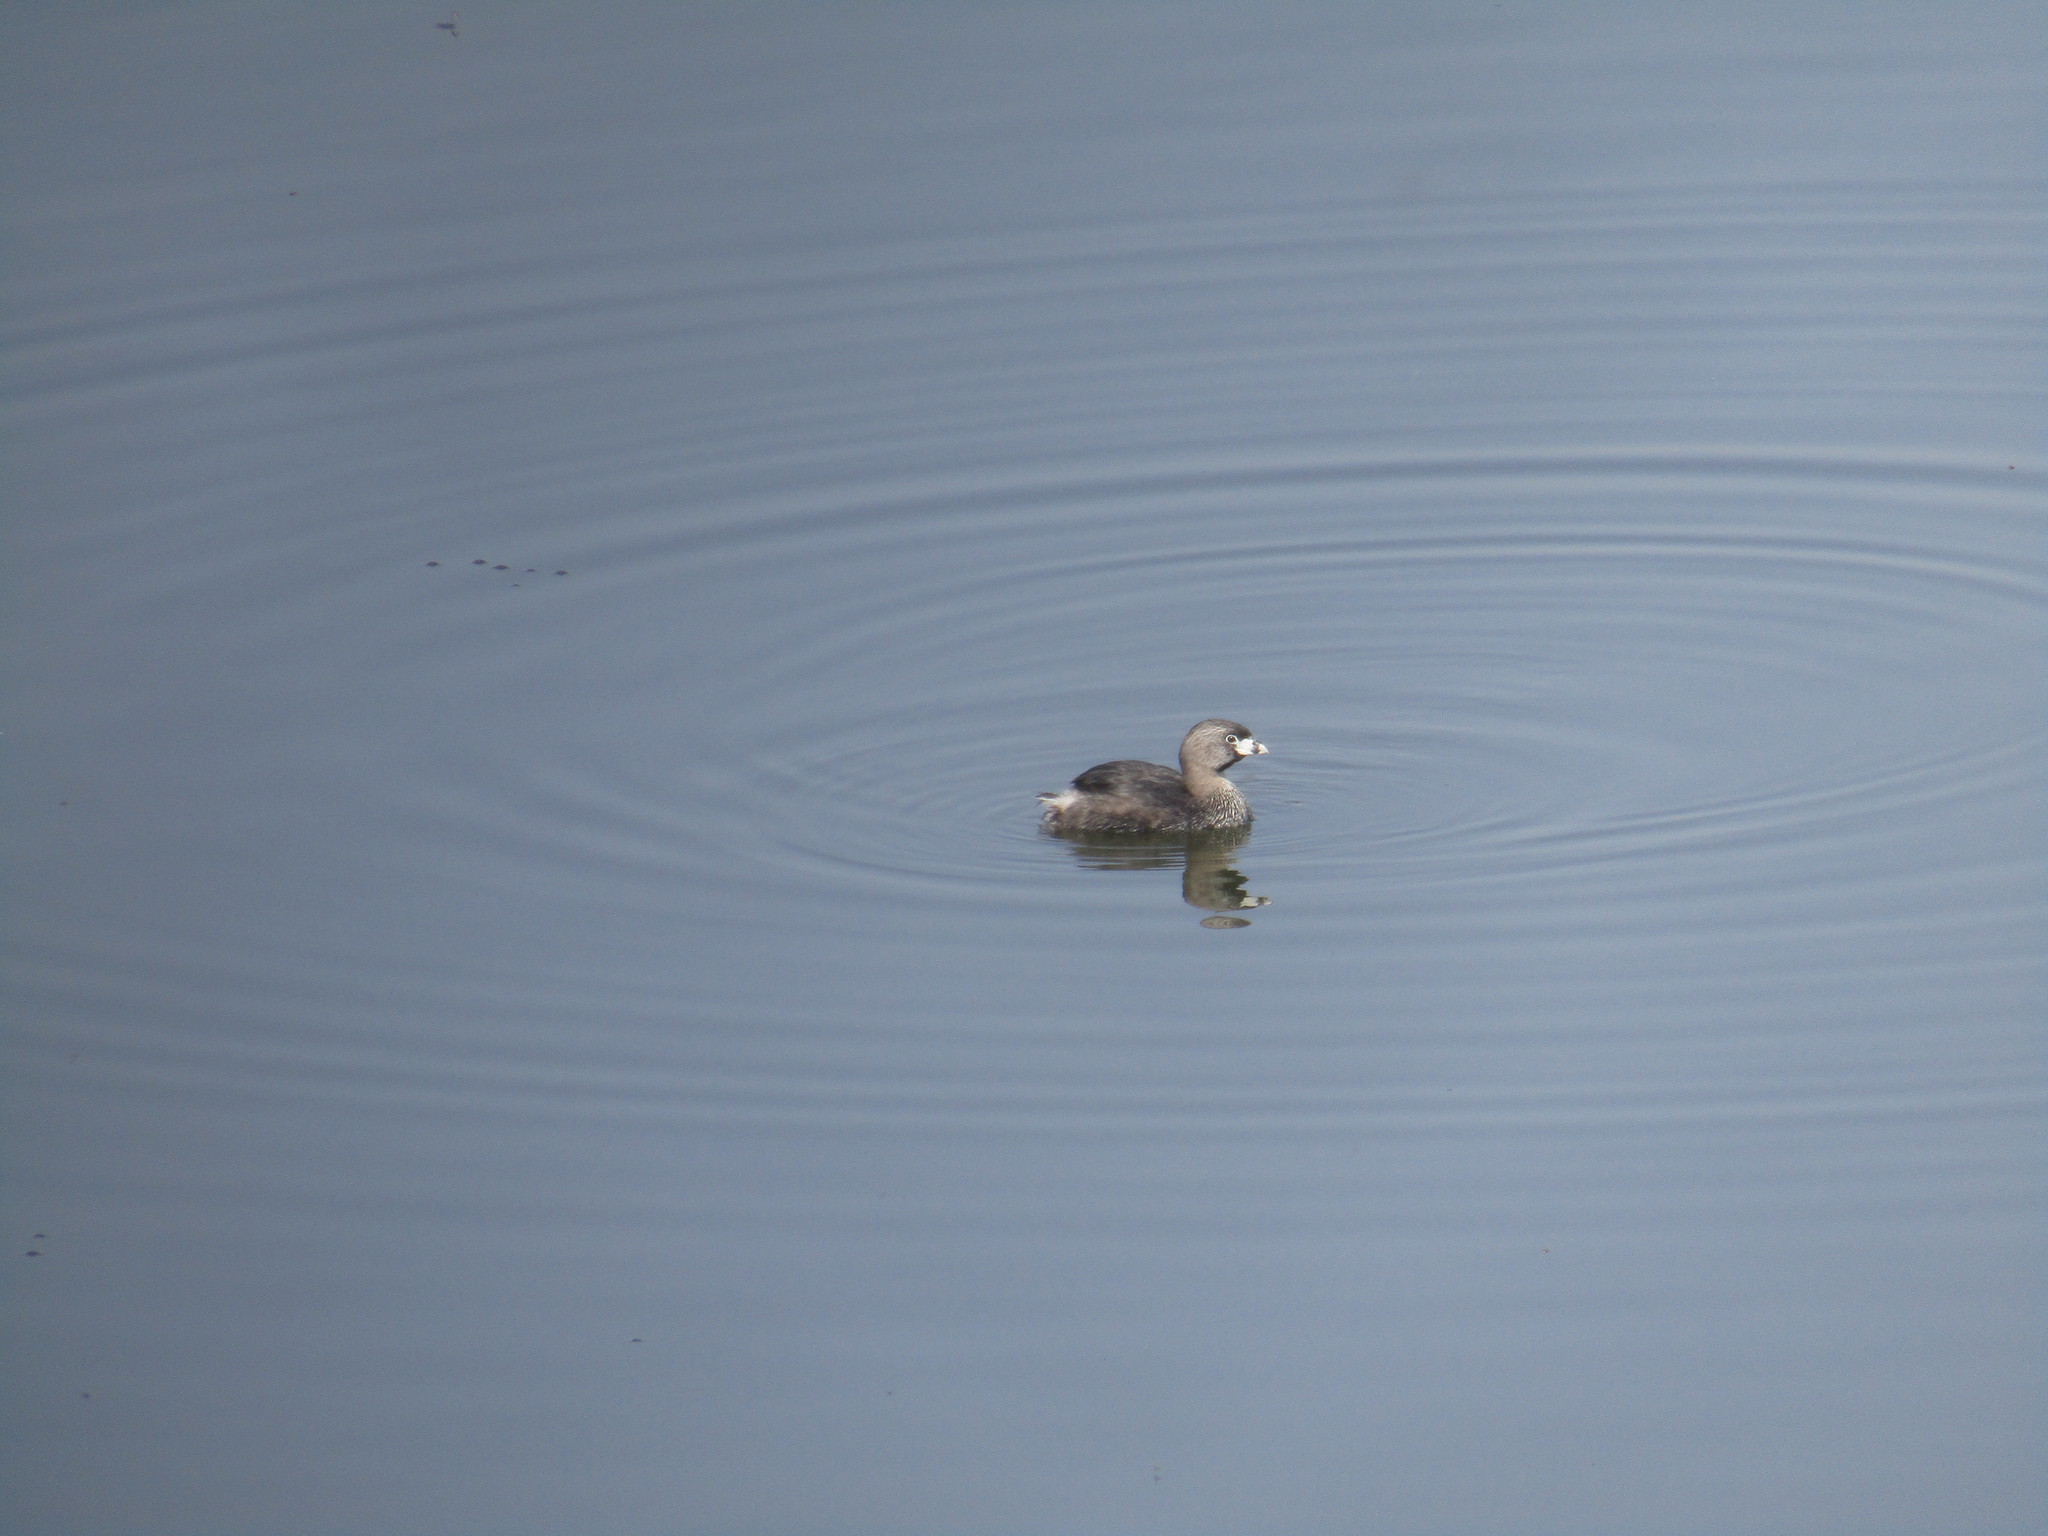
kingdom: Animalia
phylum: Chordata
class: Aves
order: Podicipediformes
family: Podicipedidae
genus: Podilymbus
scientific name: Podilymbus podiceps
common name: Pied-billed grebe
